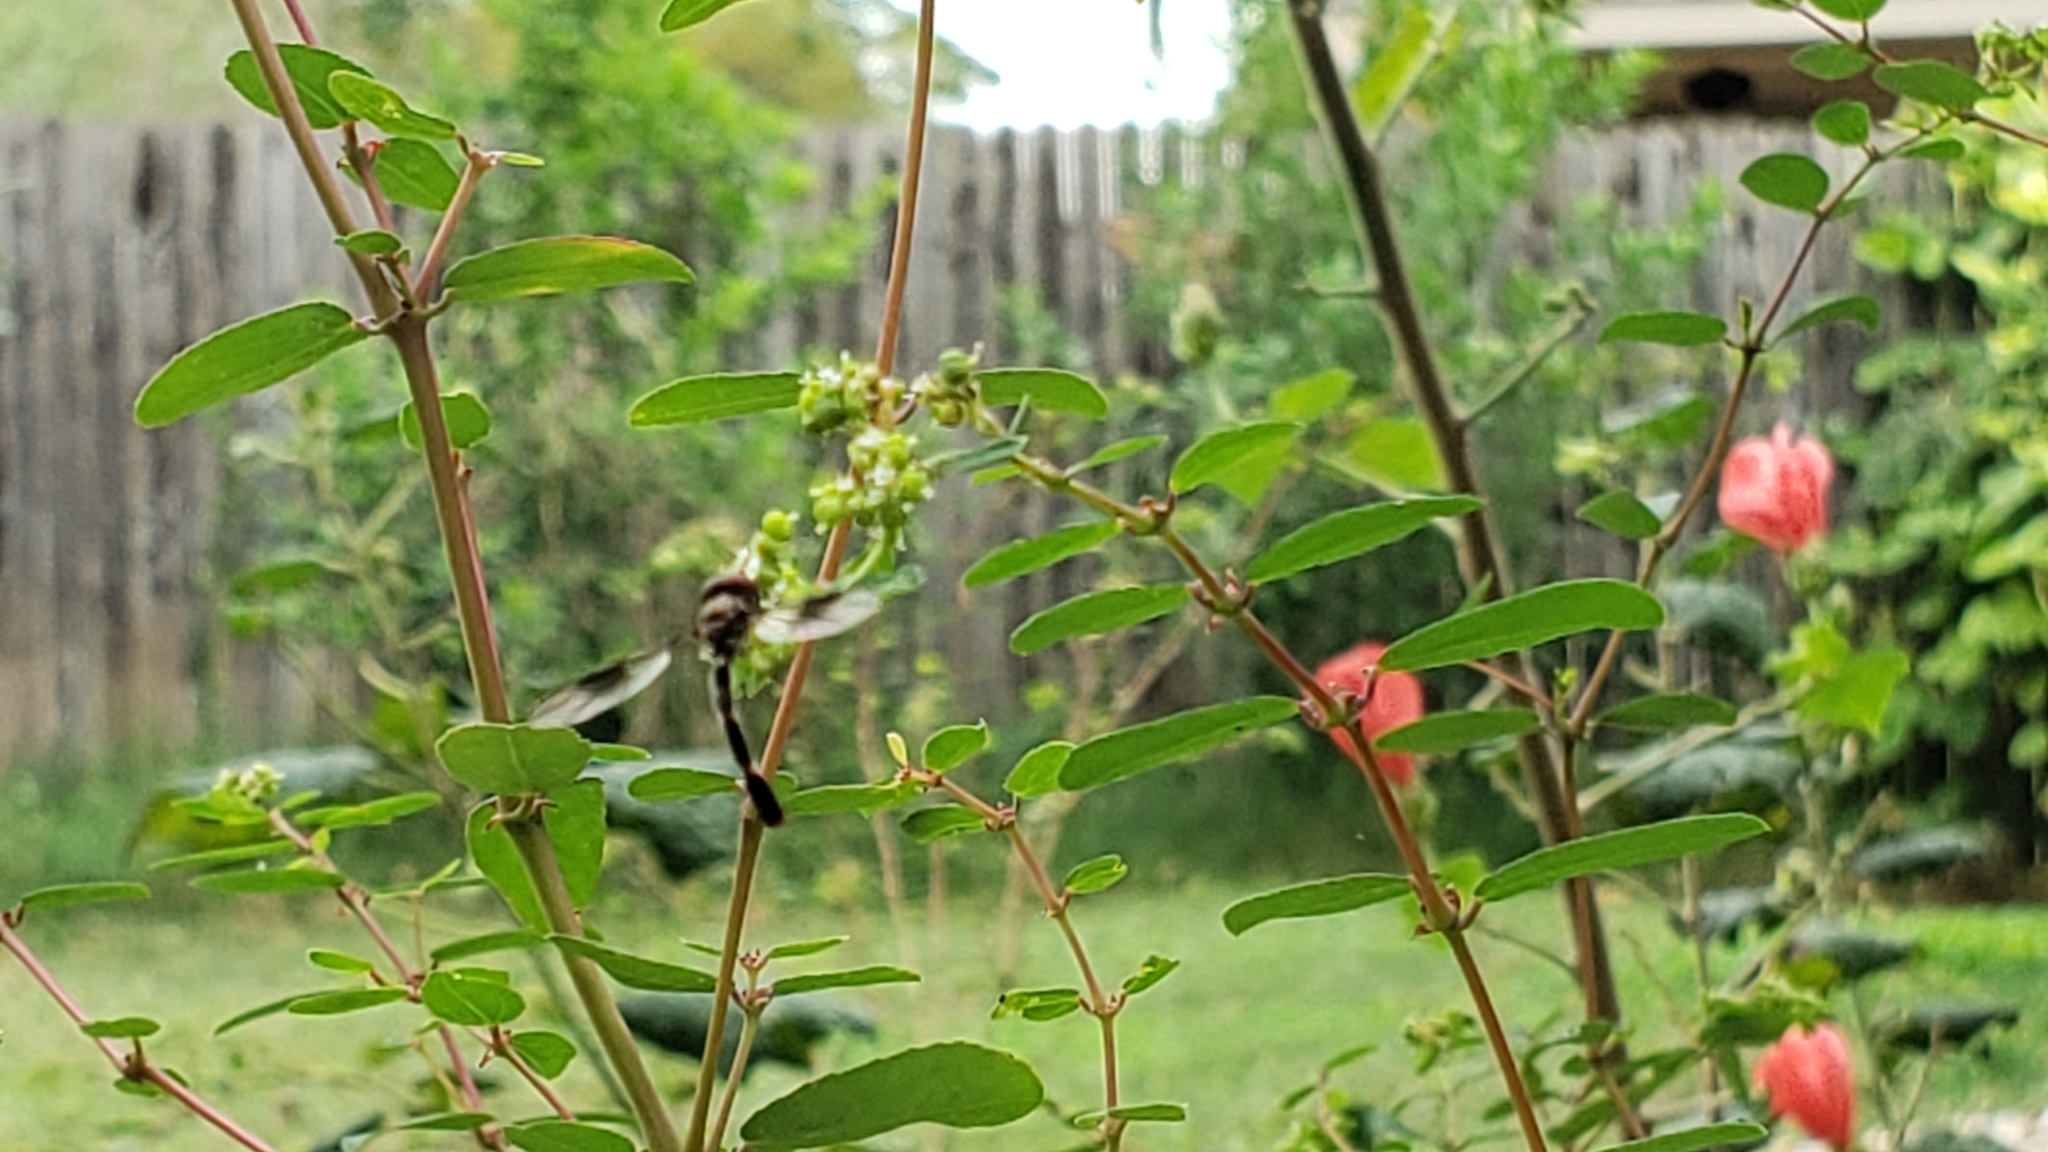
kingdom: Animalia
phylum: Arthropoda
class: Insecta
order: Diptera
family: Syrphidae
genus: Hypocritanus
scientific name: Hypocritanus fascipennis
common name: Eastern band-winged hover fly
